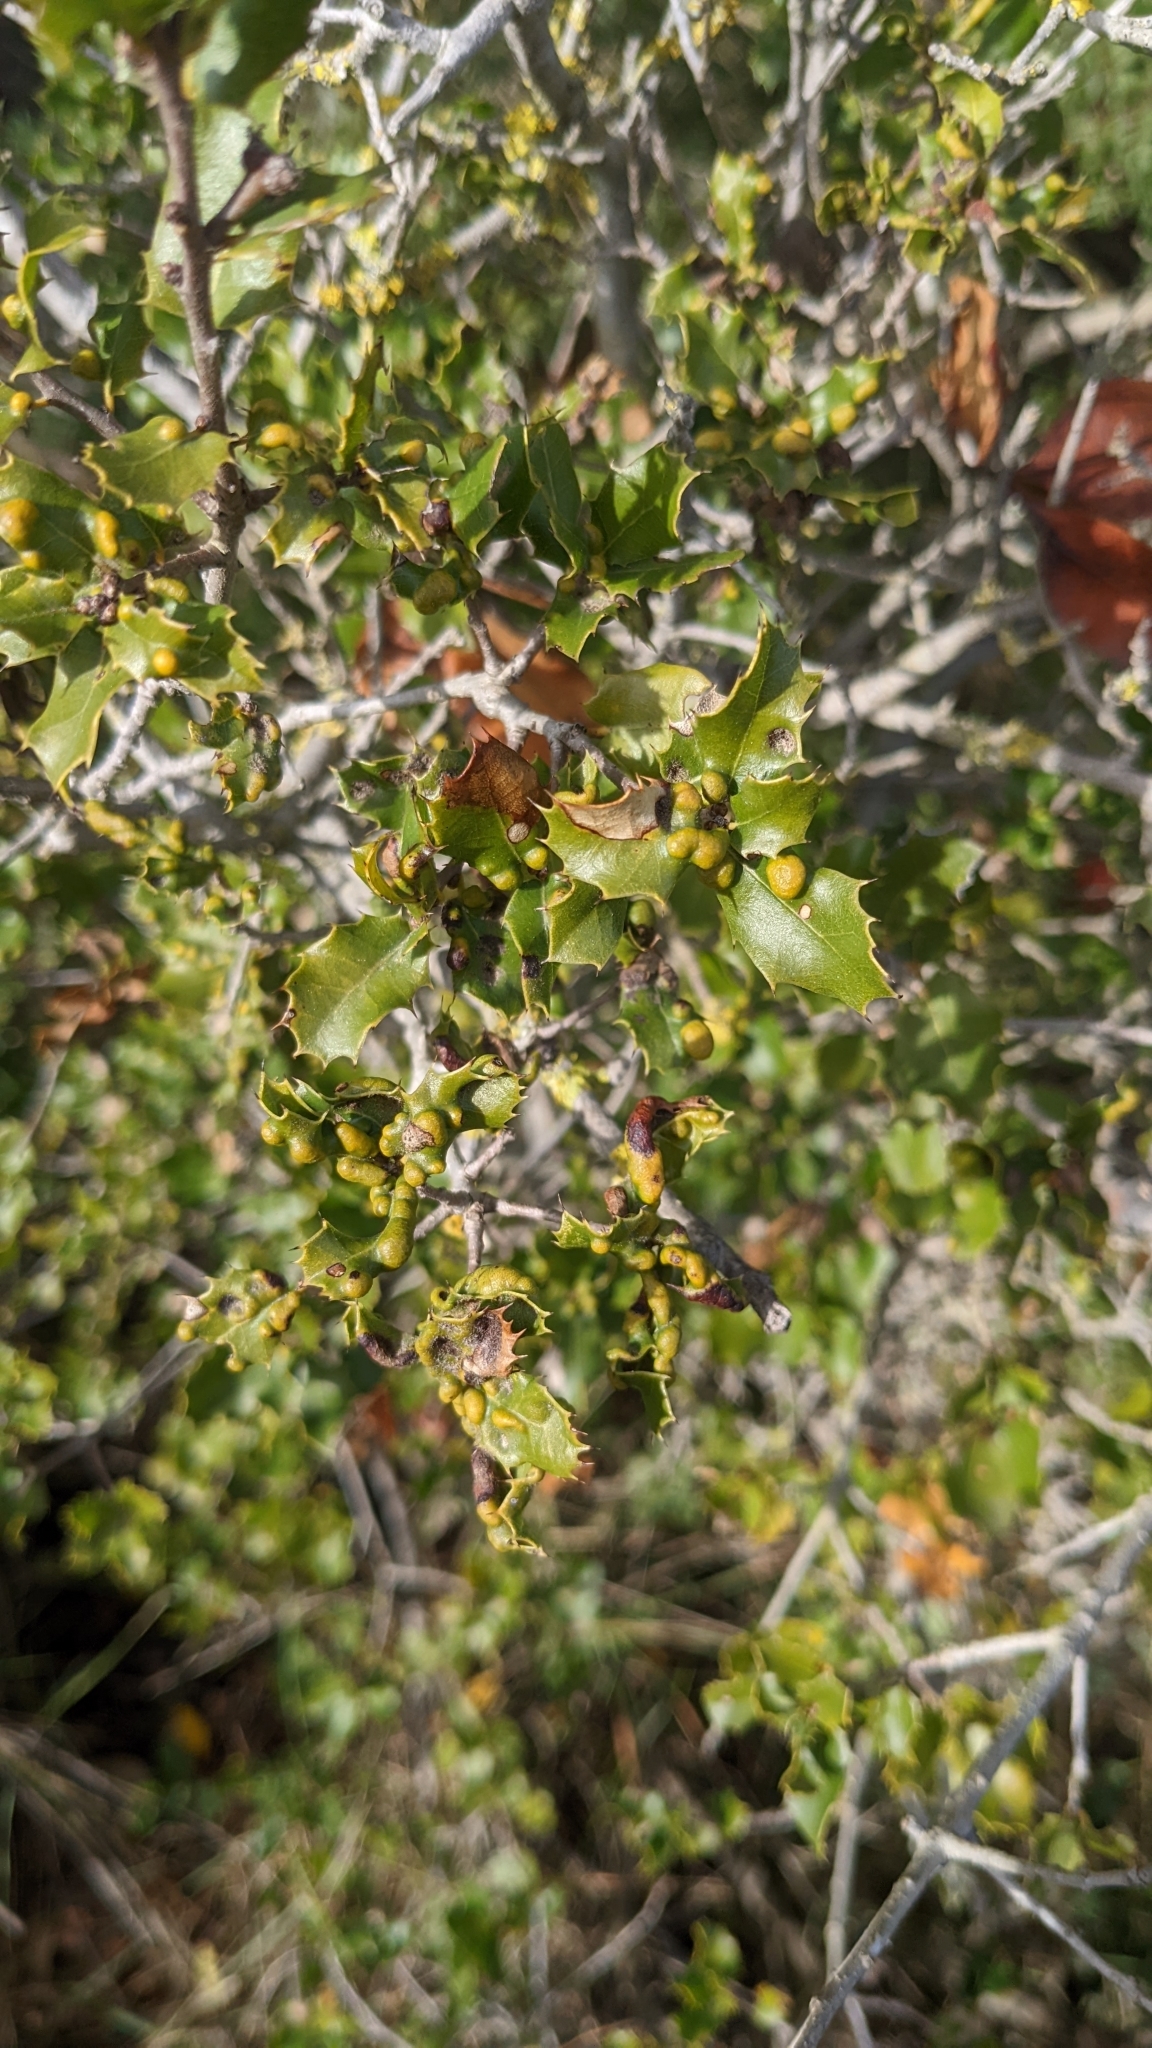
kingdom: Plantae
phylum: Tracheophyta
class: Magnoliopsida
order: Fagales
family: Fagaceae
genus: Quercus
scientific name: Quercus coccifera
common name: Kermes oak
